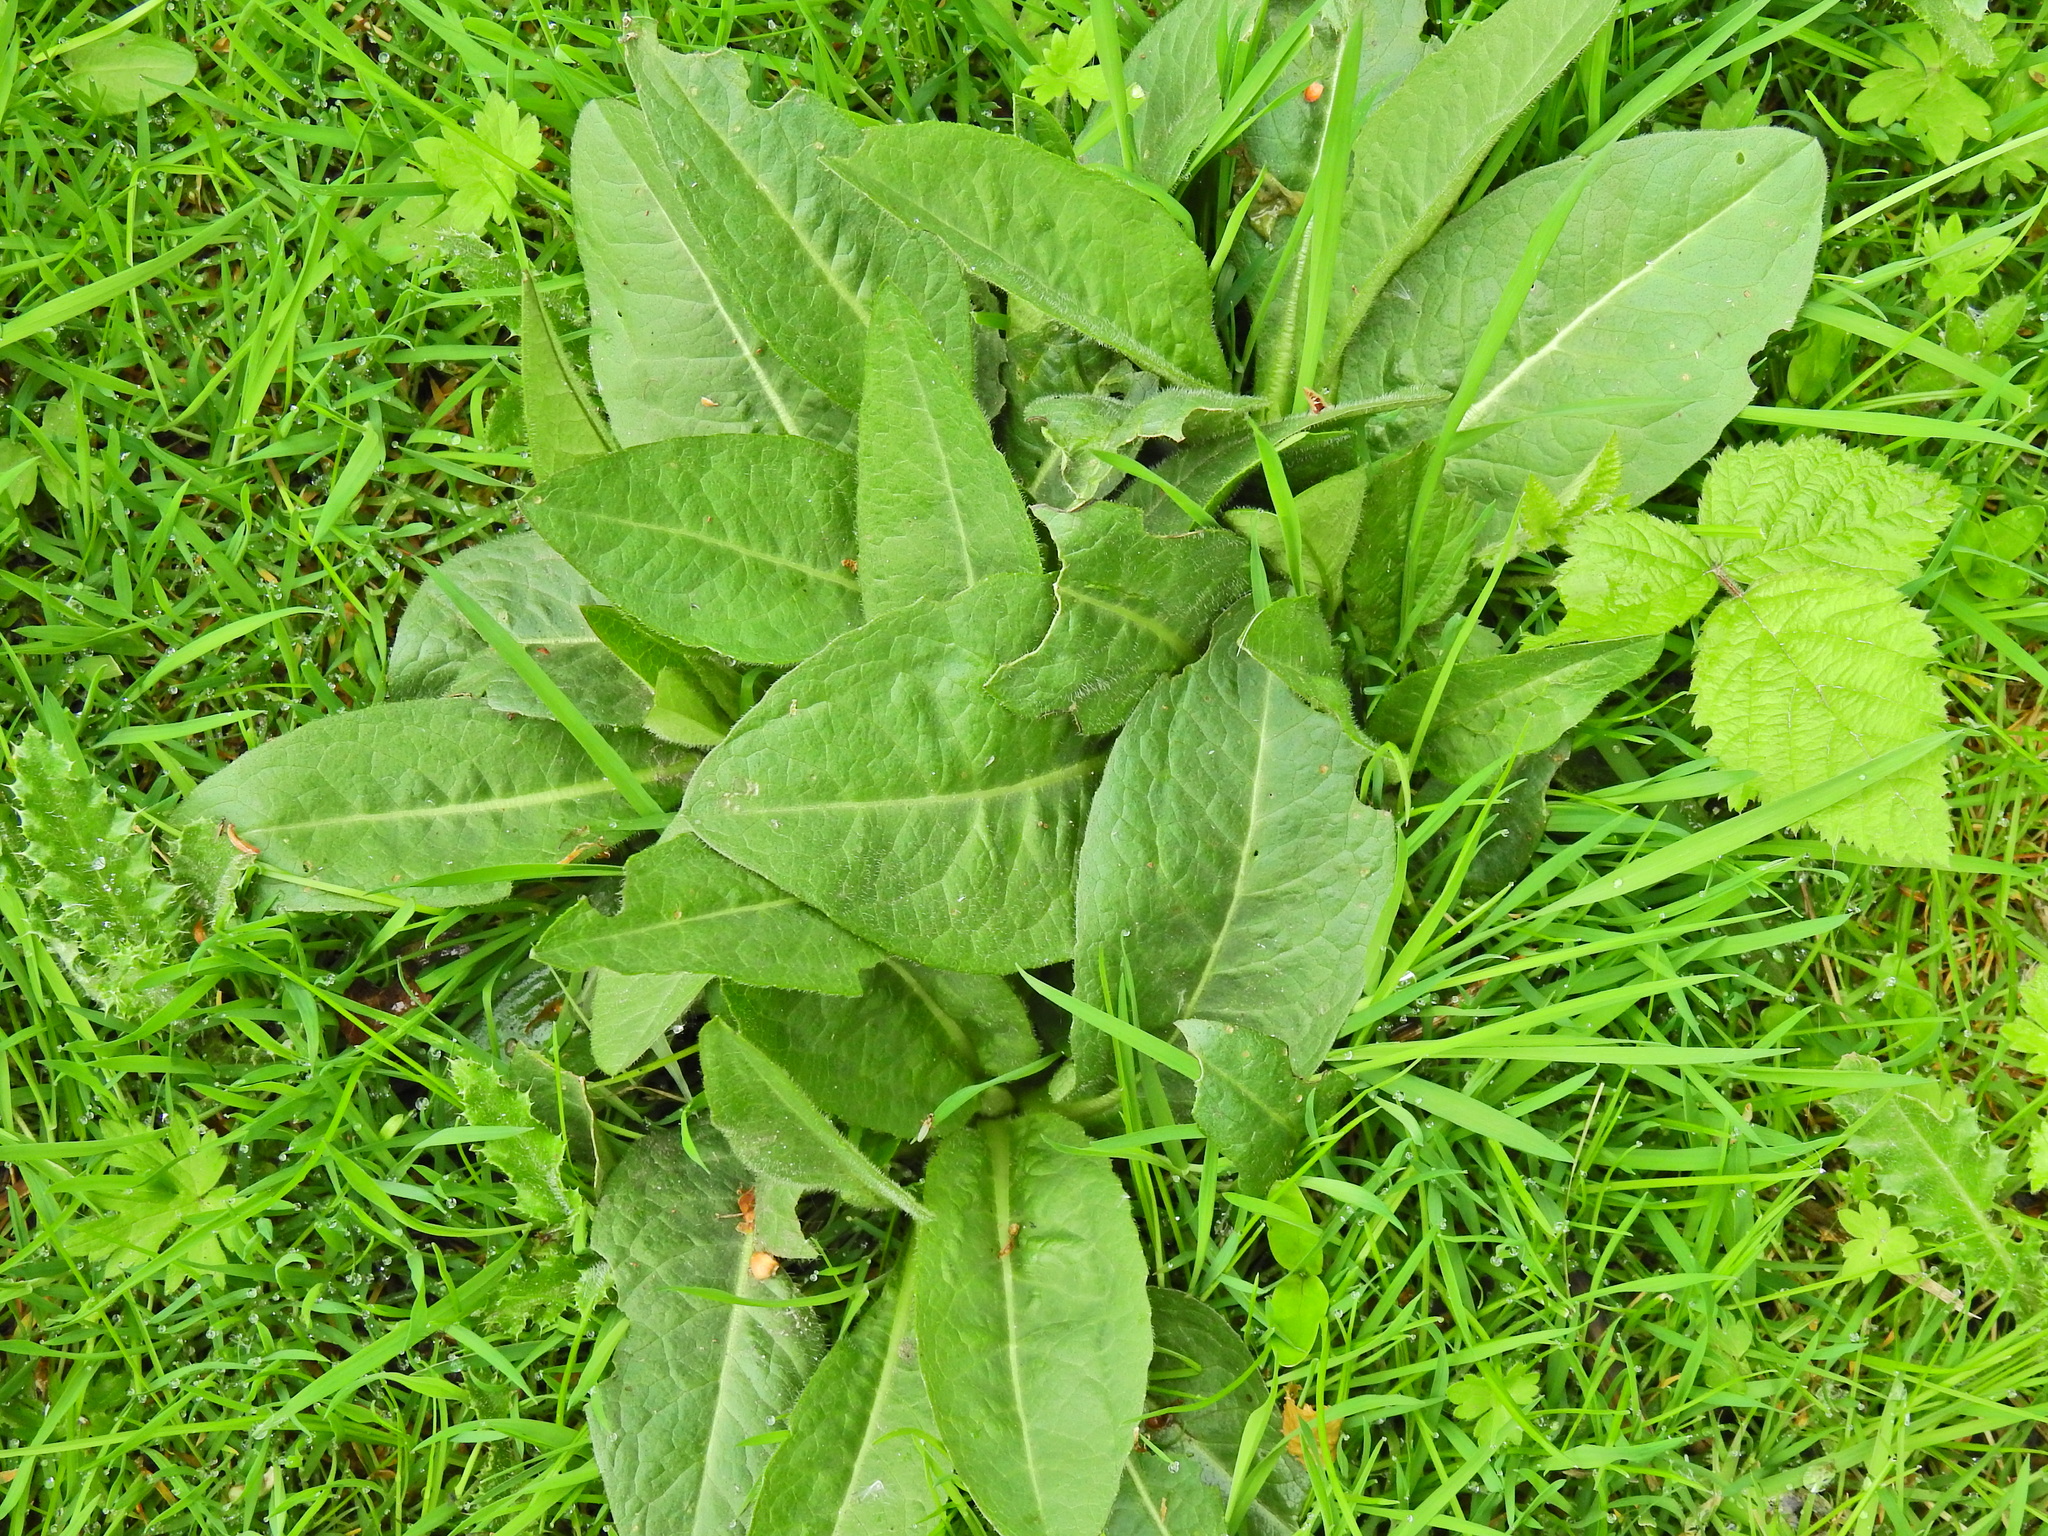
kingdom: Plantae
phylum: Tracheophyta
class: Magnoliopsida
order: Caryophyllales
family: Polygonaceae
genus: Rumex
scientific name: Rumex obtusifolius
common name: Bitter dock
